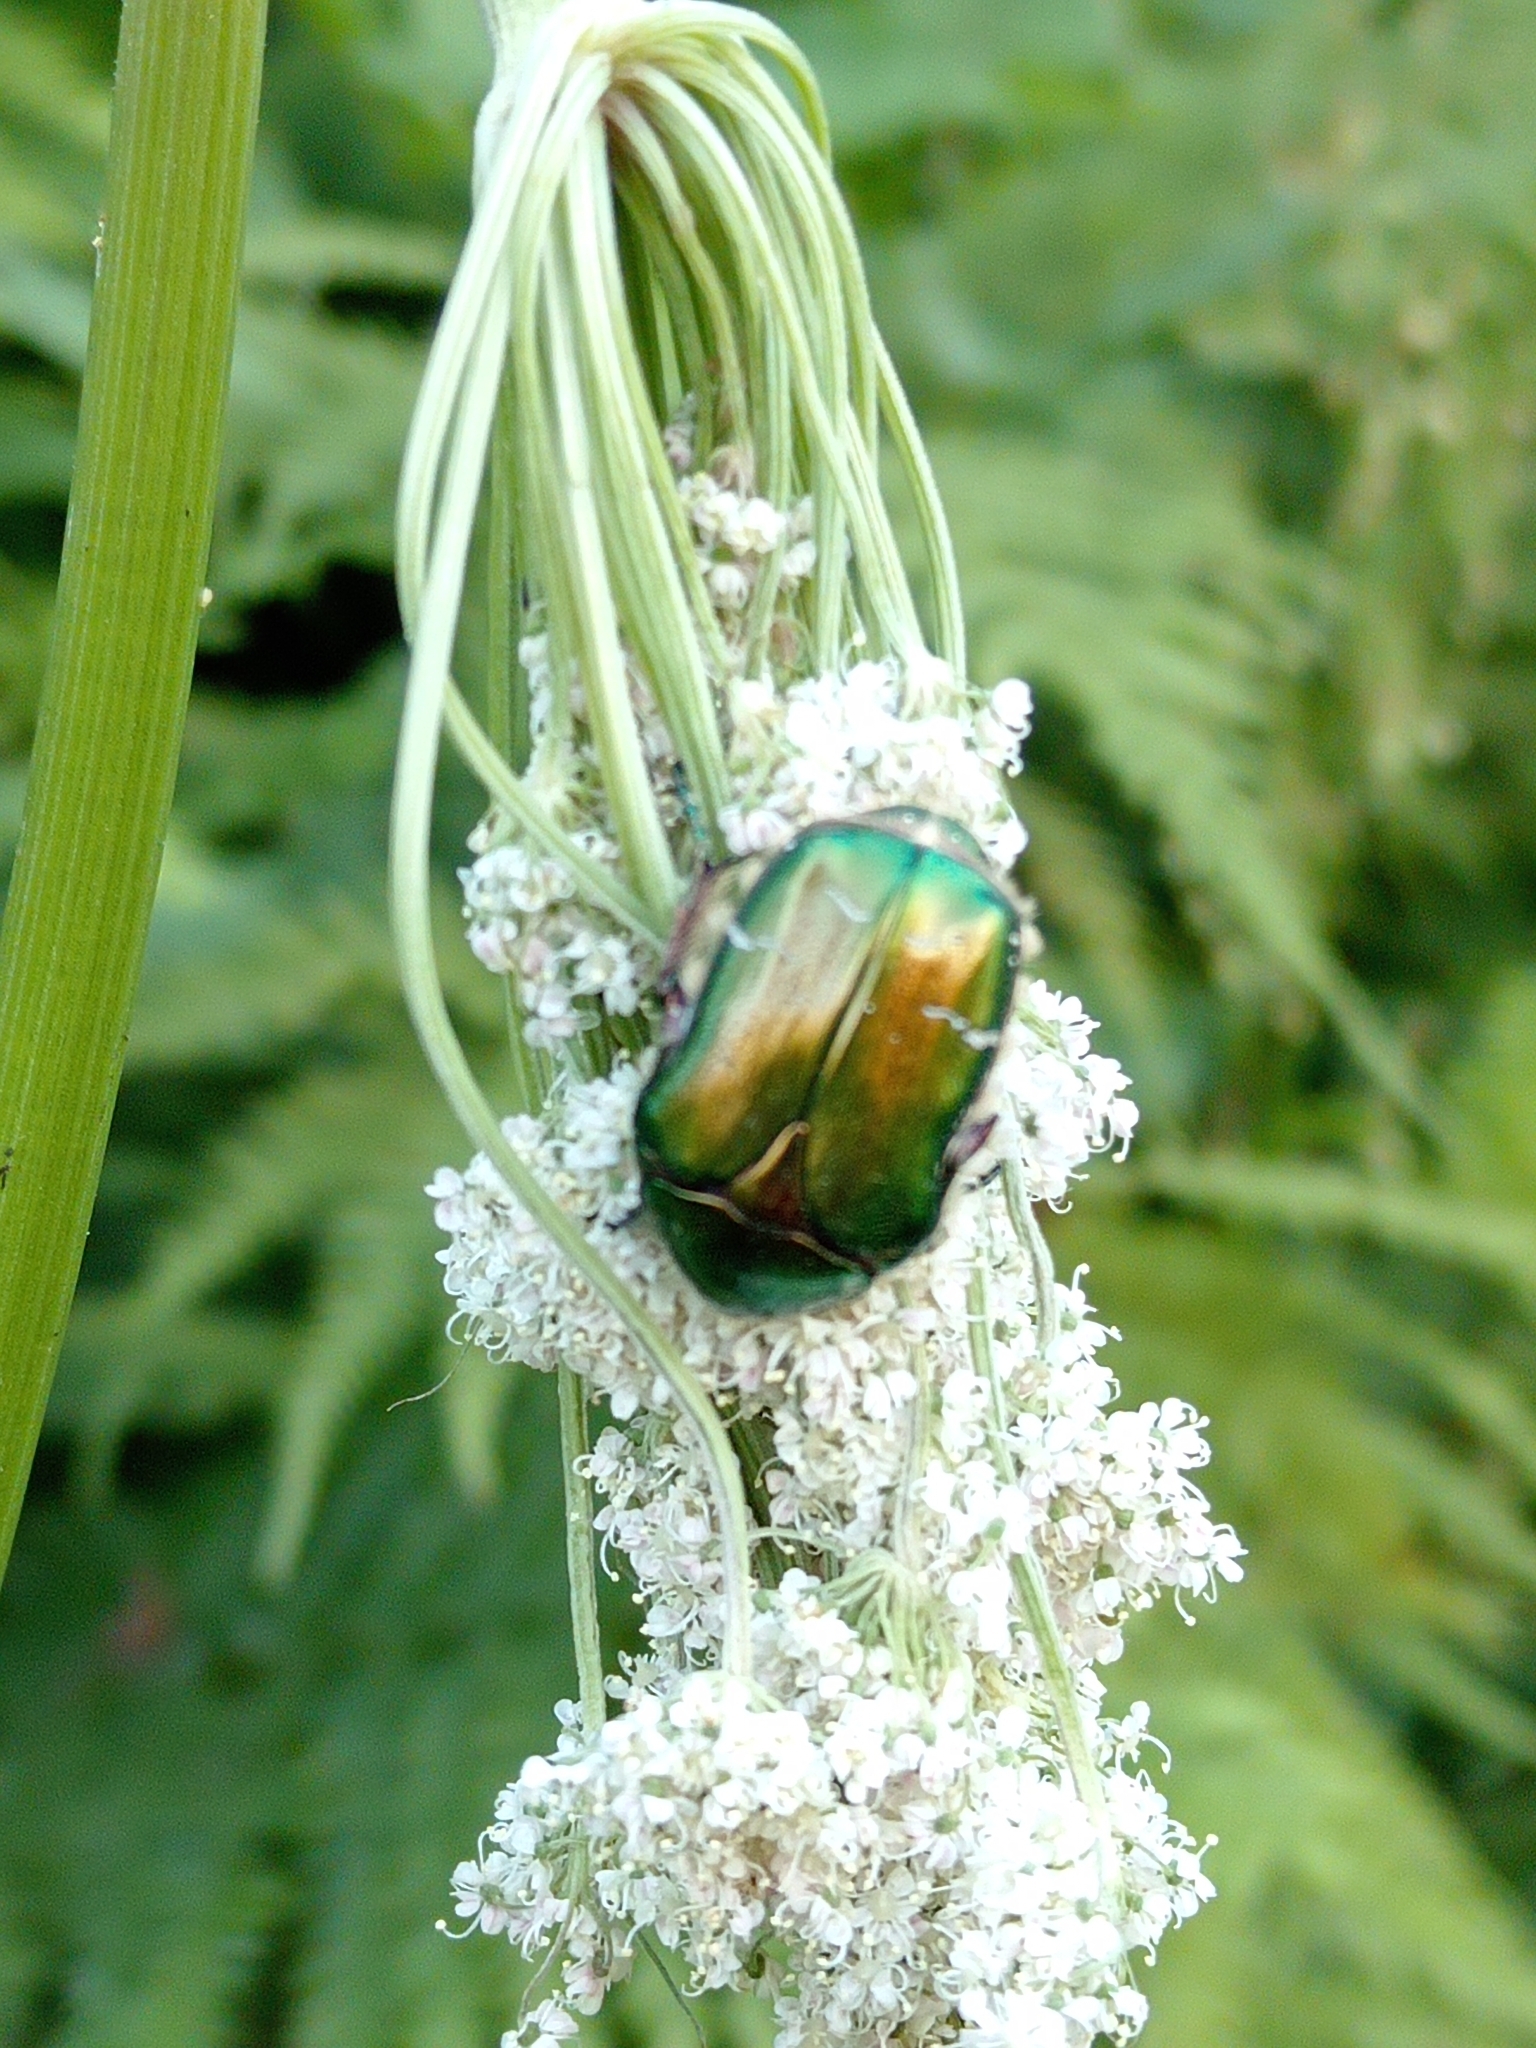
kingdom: Animalia
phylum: Arthropoda
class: Insecta
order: Coleoptera
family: Scarabaeidae
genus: Cetonia
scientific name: Cetonia aurata
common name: Rose chafer
